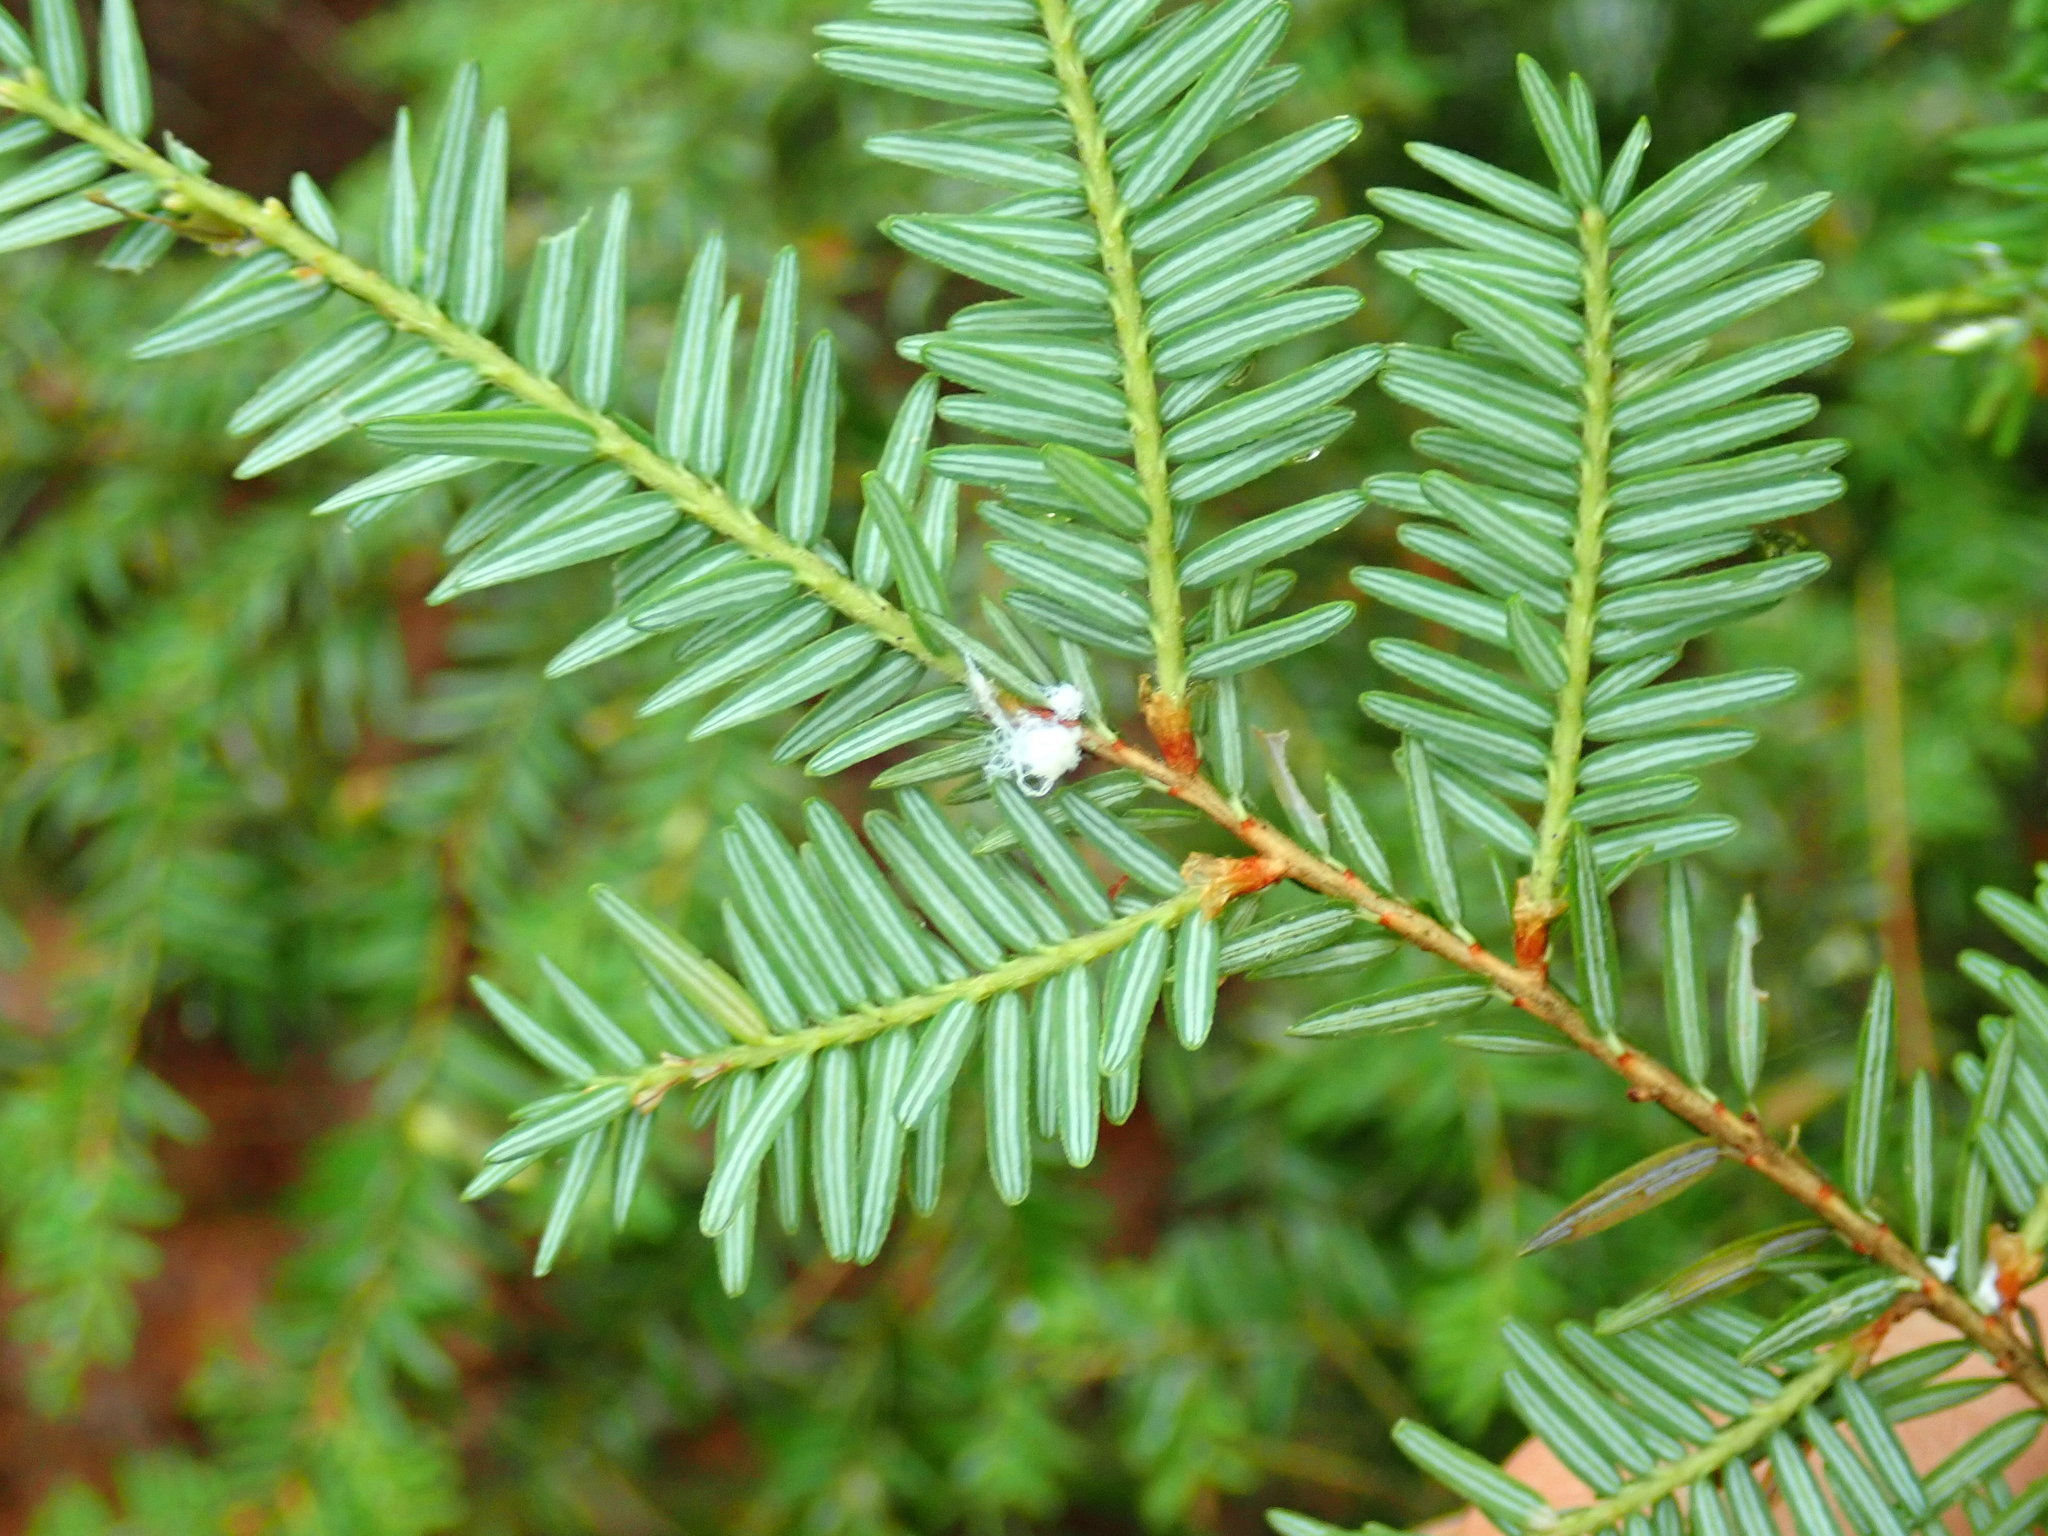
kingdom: Animalia
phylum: Arthropoda
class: Insecta
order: Hemiptera
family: Adelgidae
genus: Adelges
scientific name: Adelges tsugae
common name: Hemlock woolly adelgid
